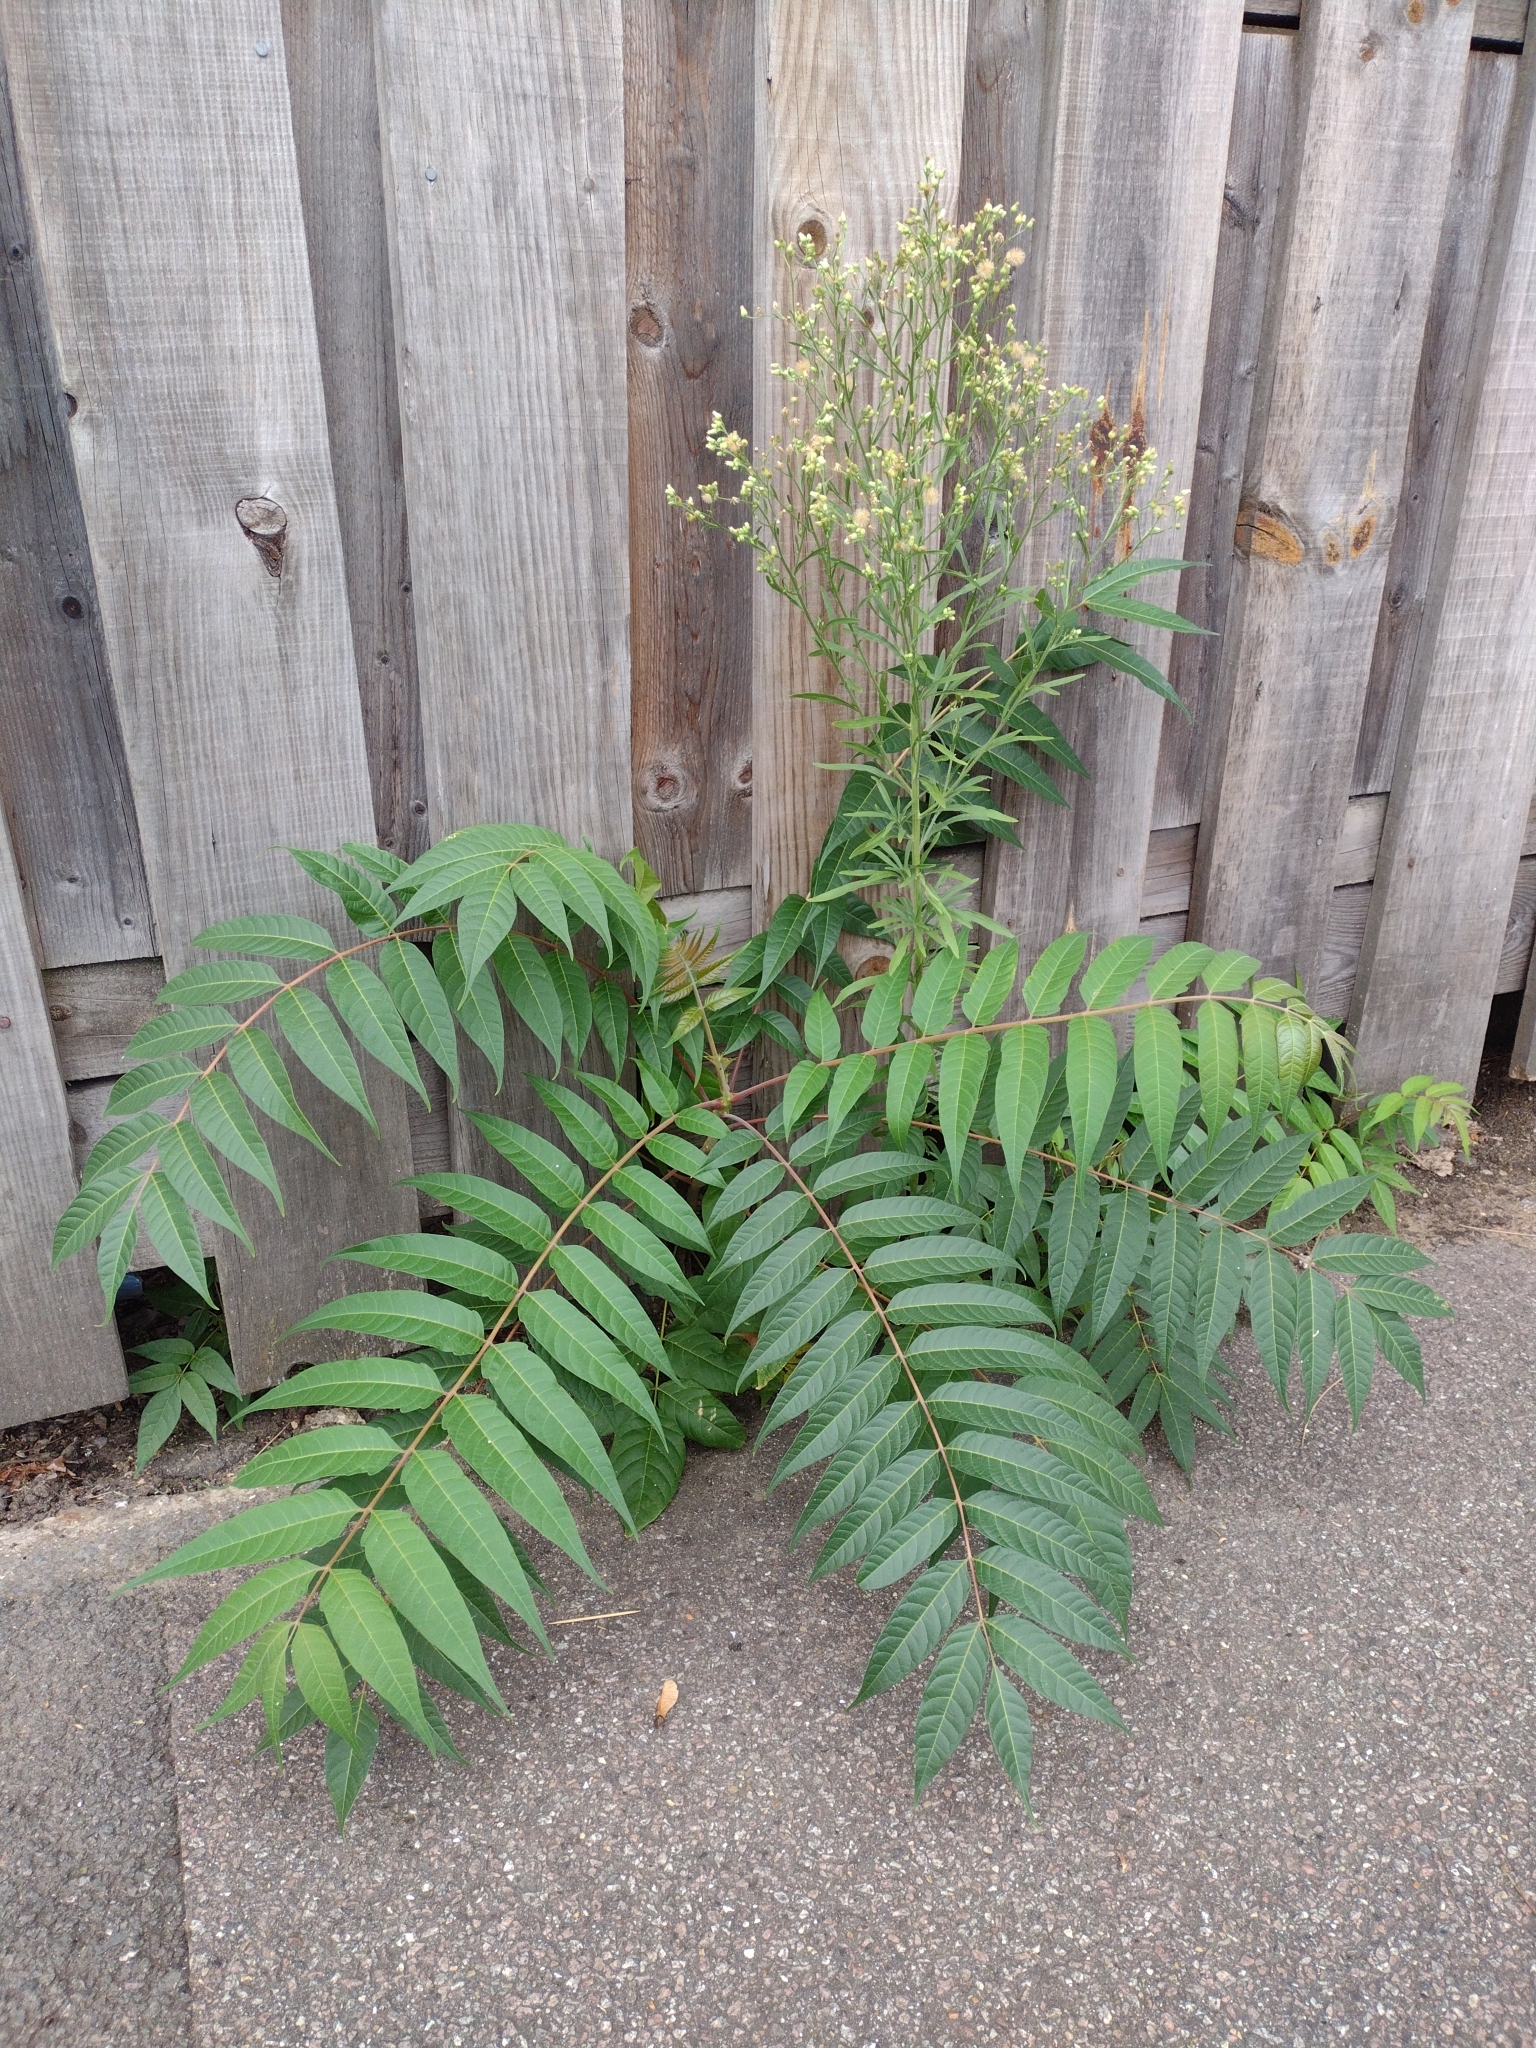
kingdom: Plantae
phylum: Tracheophyta
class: Magnoliopsida
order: Sapindales
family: Simaroubaceae
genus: Ailanthus
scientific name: Ailanthus altissima
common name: Tree-of-heaven
